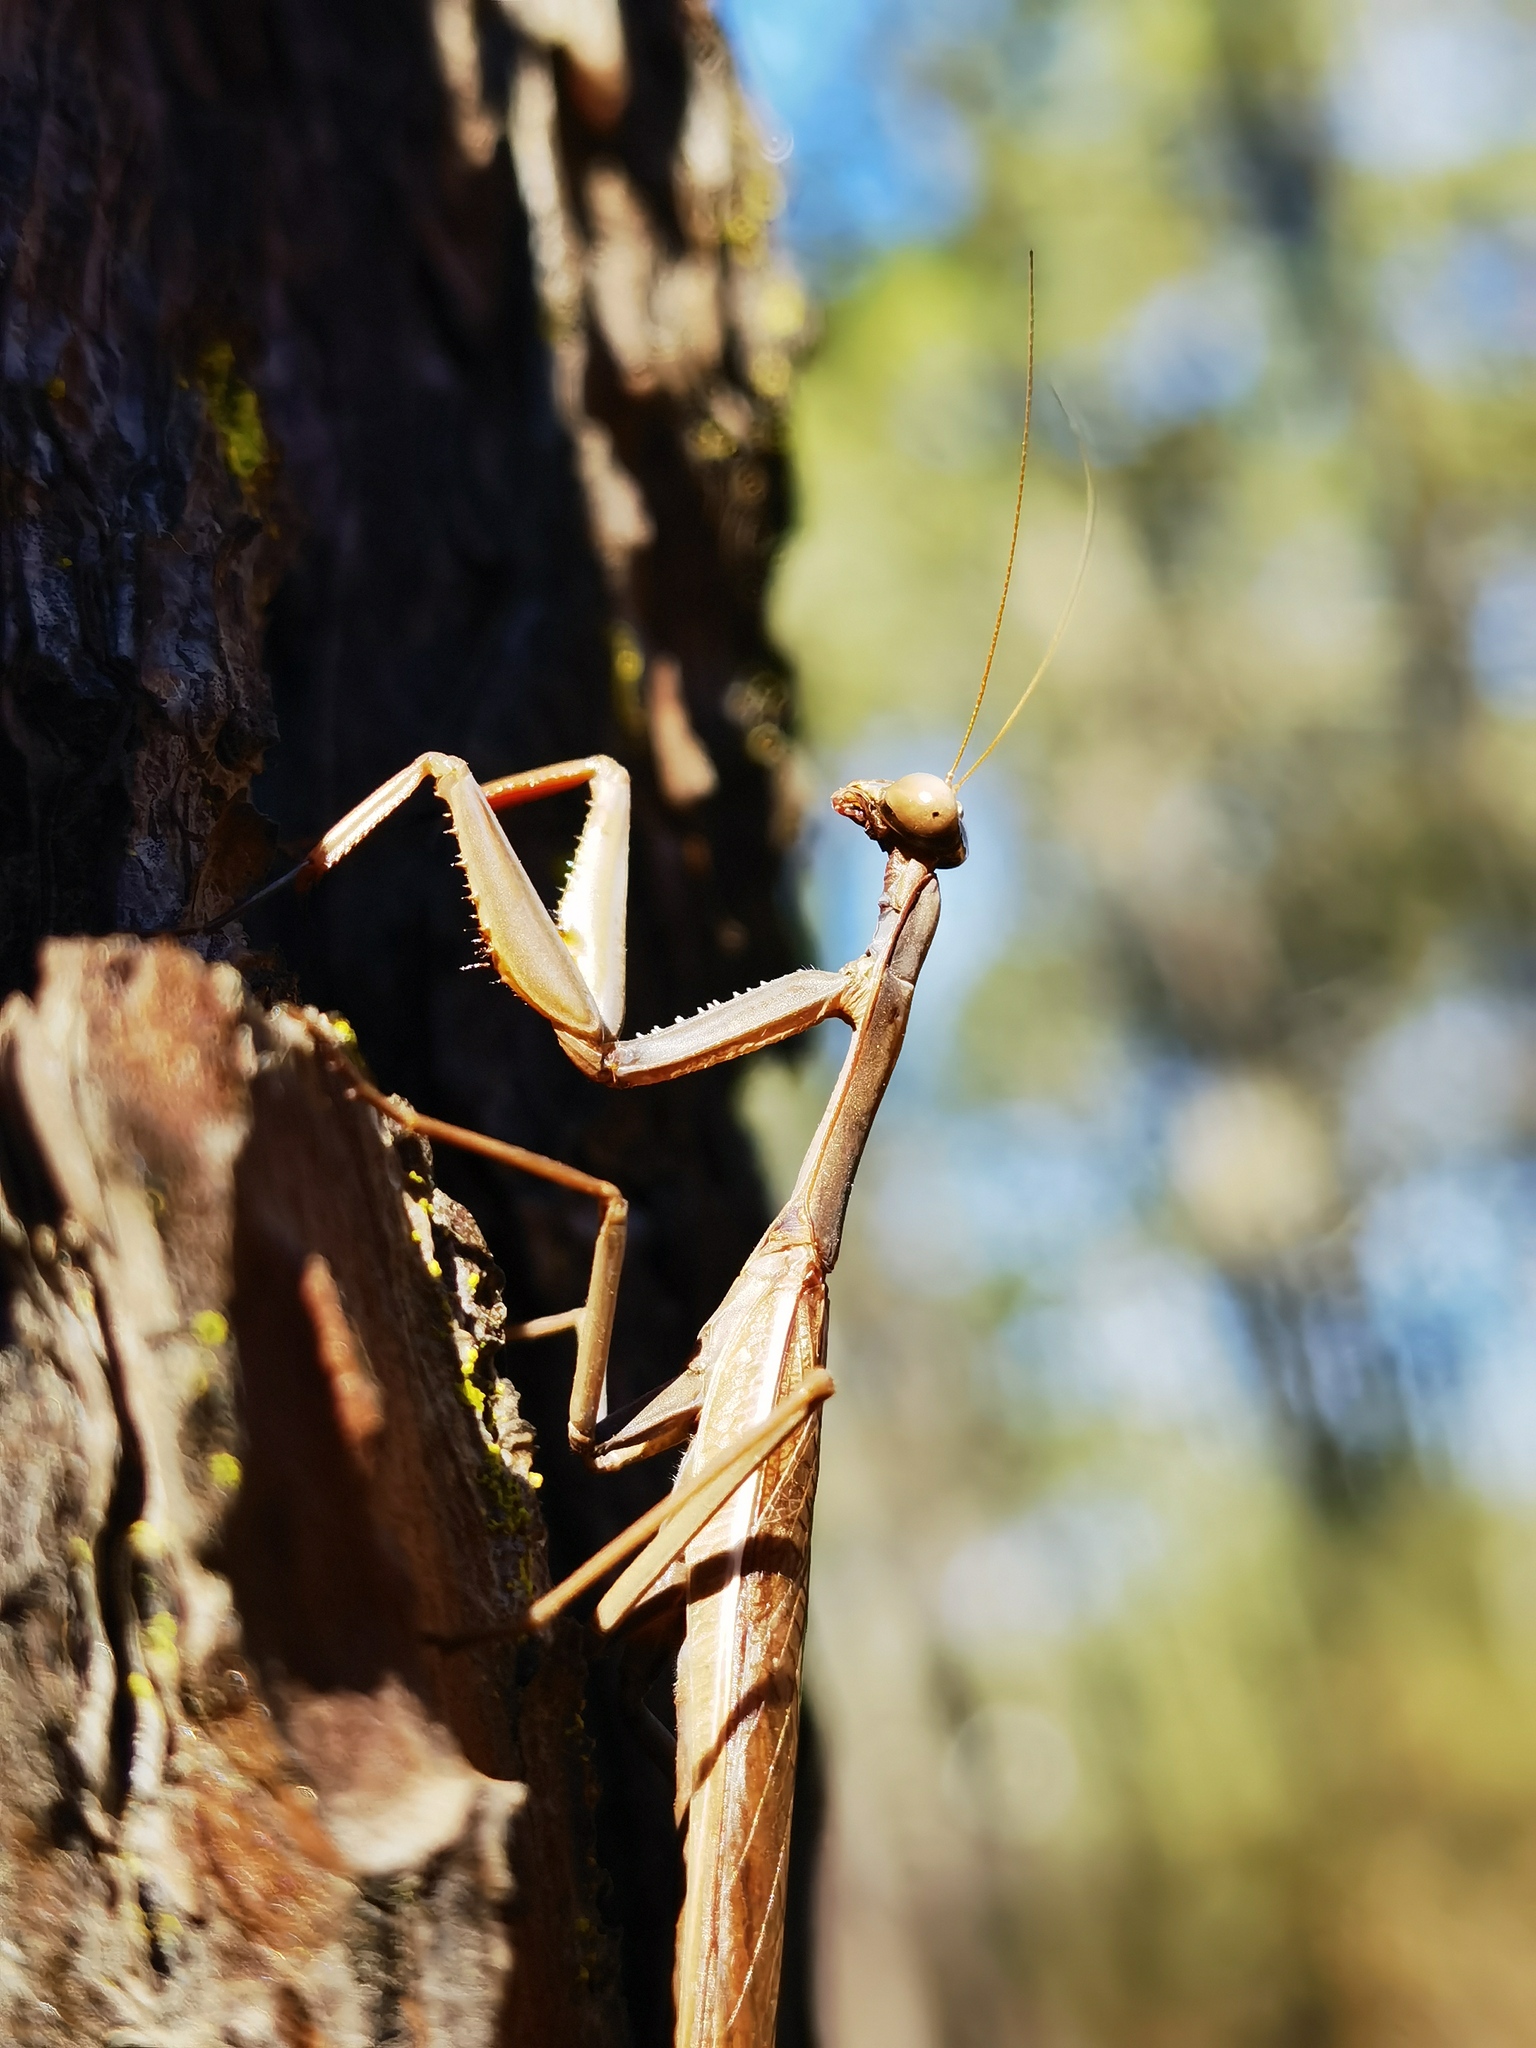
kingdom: Animalia
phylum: Arthropoda
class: Insecta
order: Mantodea
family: Eremiaphilidae
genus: Iris
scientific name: Iris oratoria
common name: Mediterranean mantis
